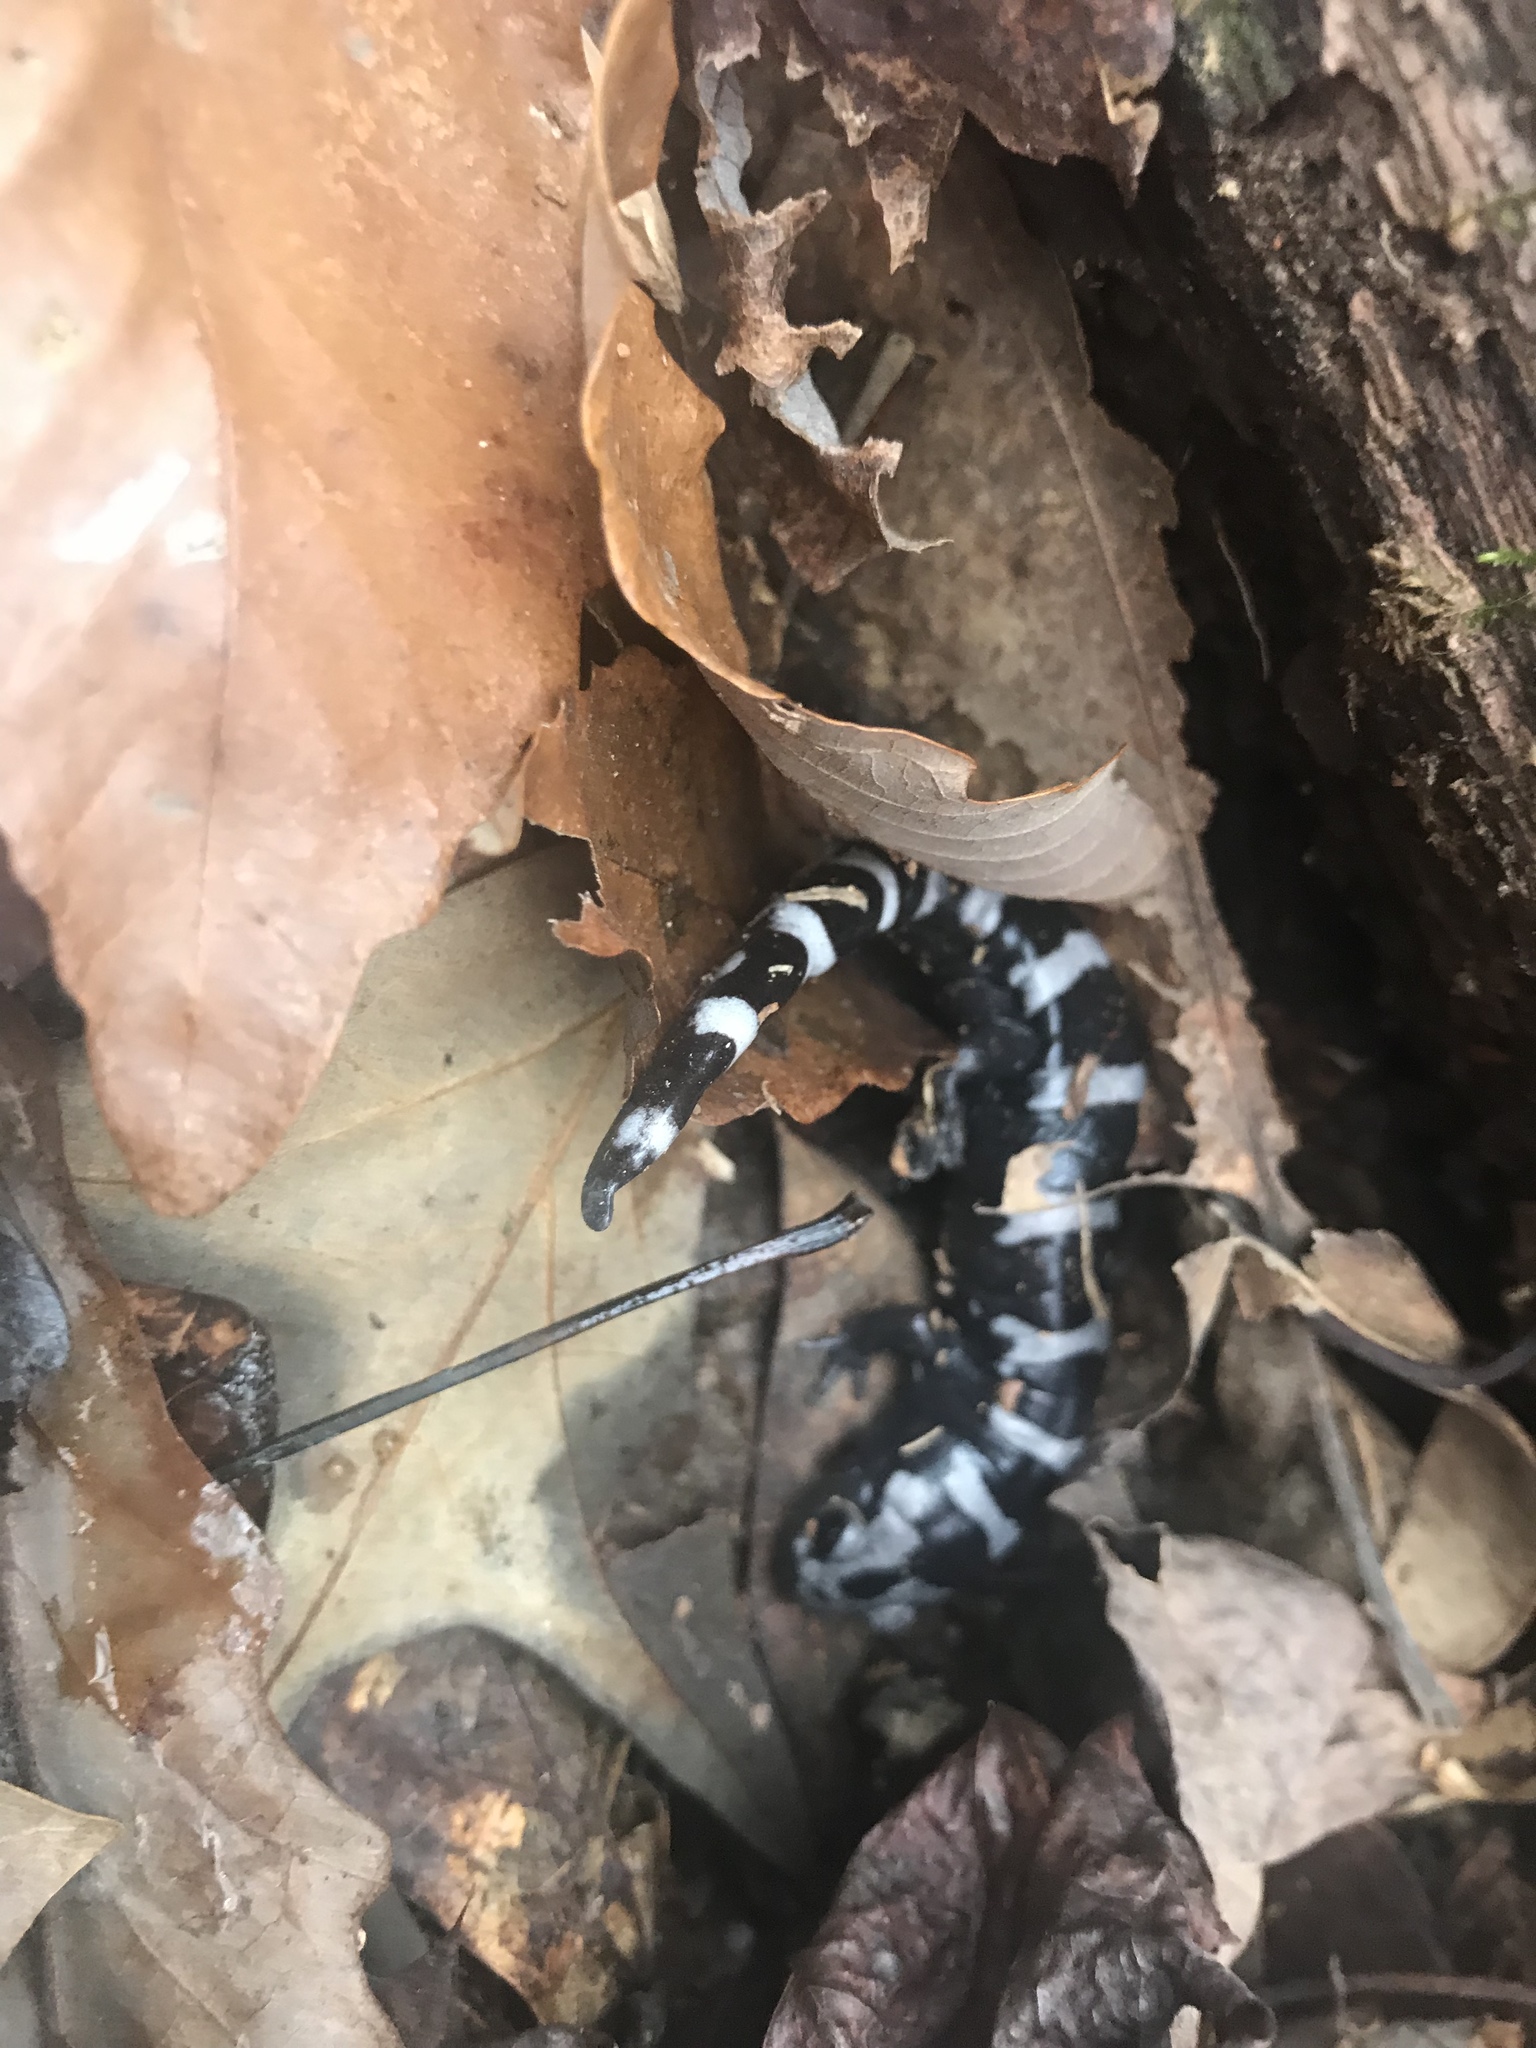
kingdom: Animalia
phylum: Chordata
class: Amphibia
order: Caudata
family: Ambystomatidae
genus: Ambystoma
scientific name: Ambystoma opacum
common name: Marbled salamander
